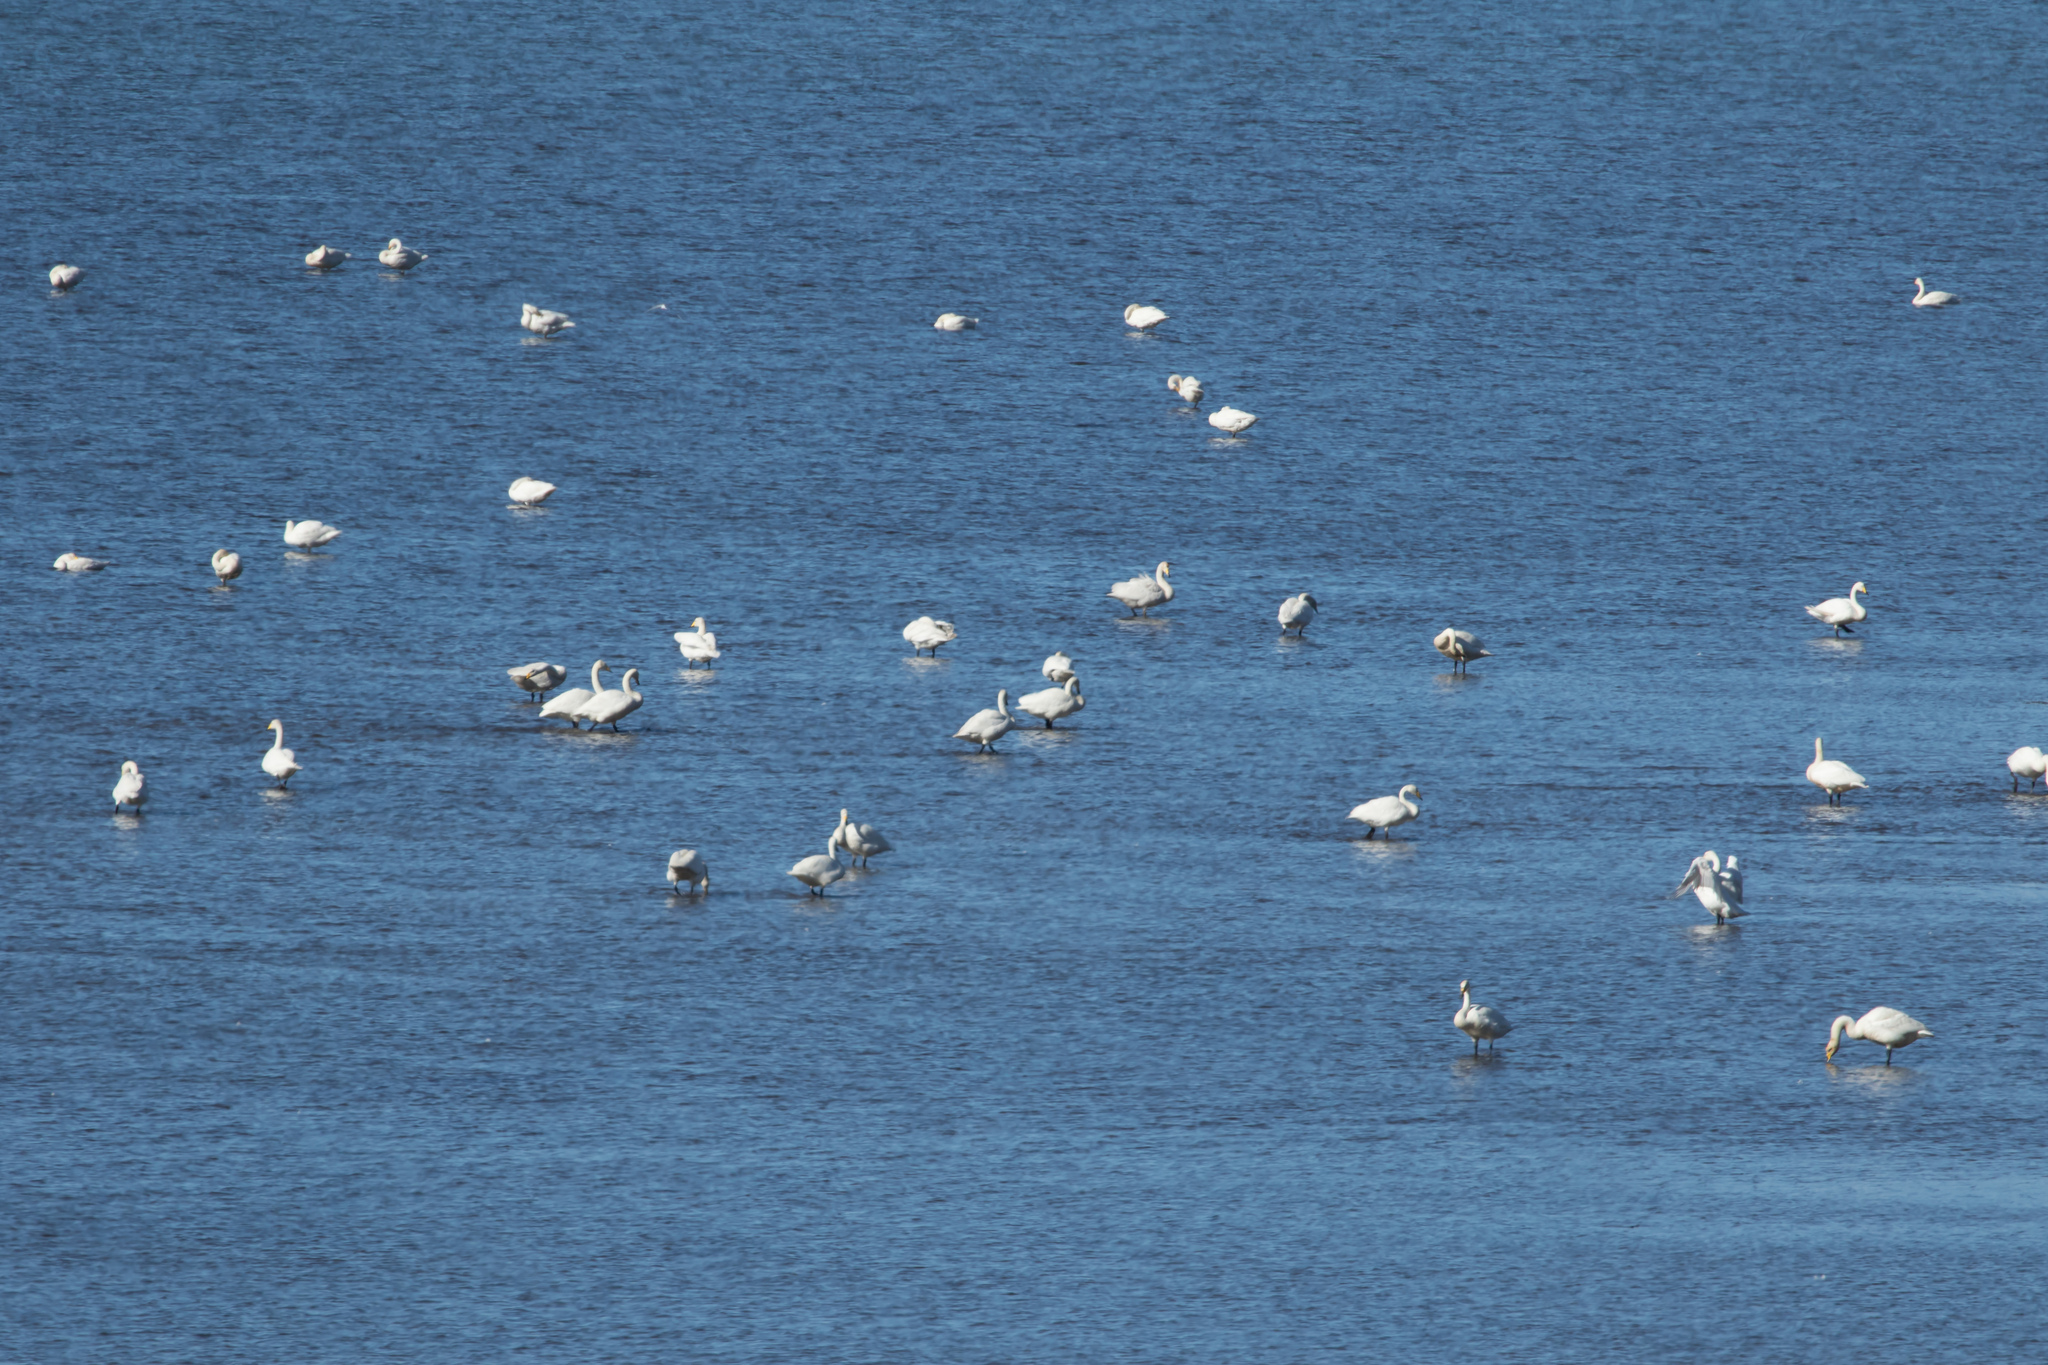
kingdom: Animalia
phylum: Chordata
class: Aves
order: Anseriformes
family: Anatidae
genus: Cygnus
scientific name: Cygnus cygnus
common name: Whooper swan
